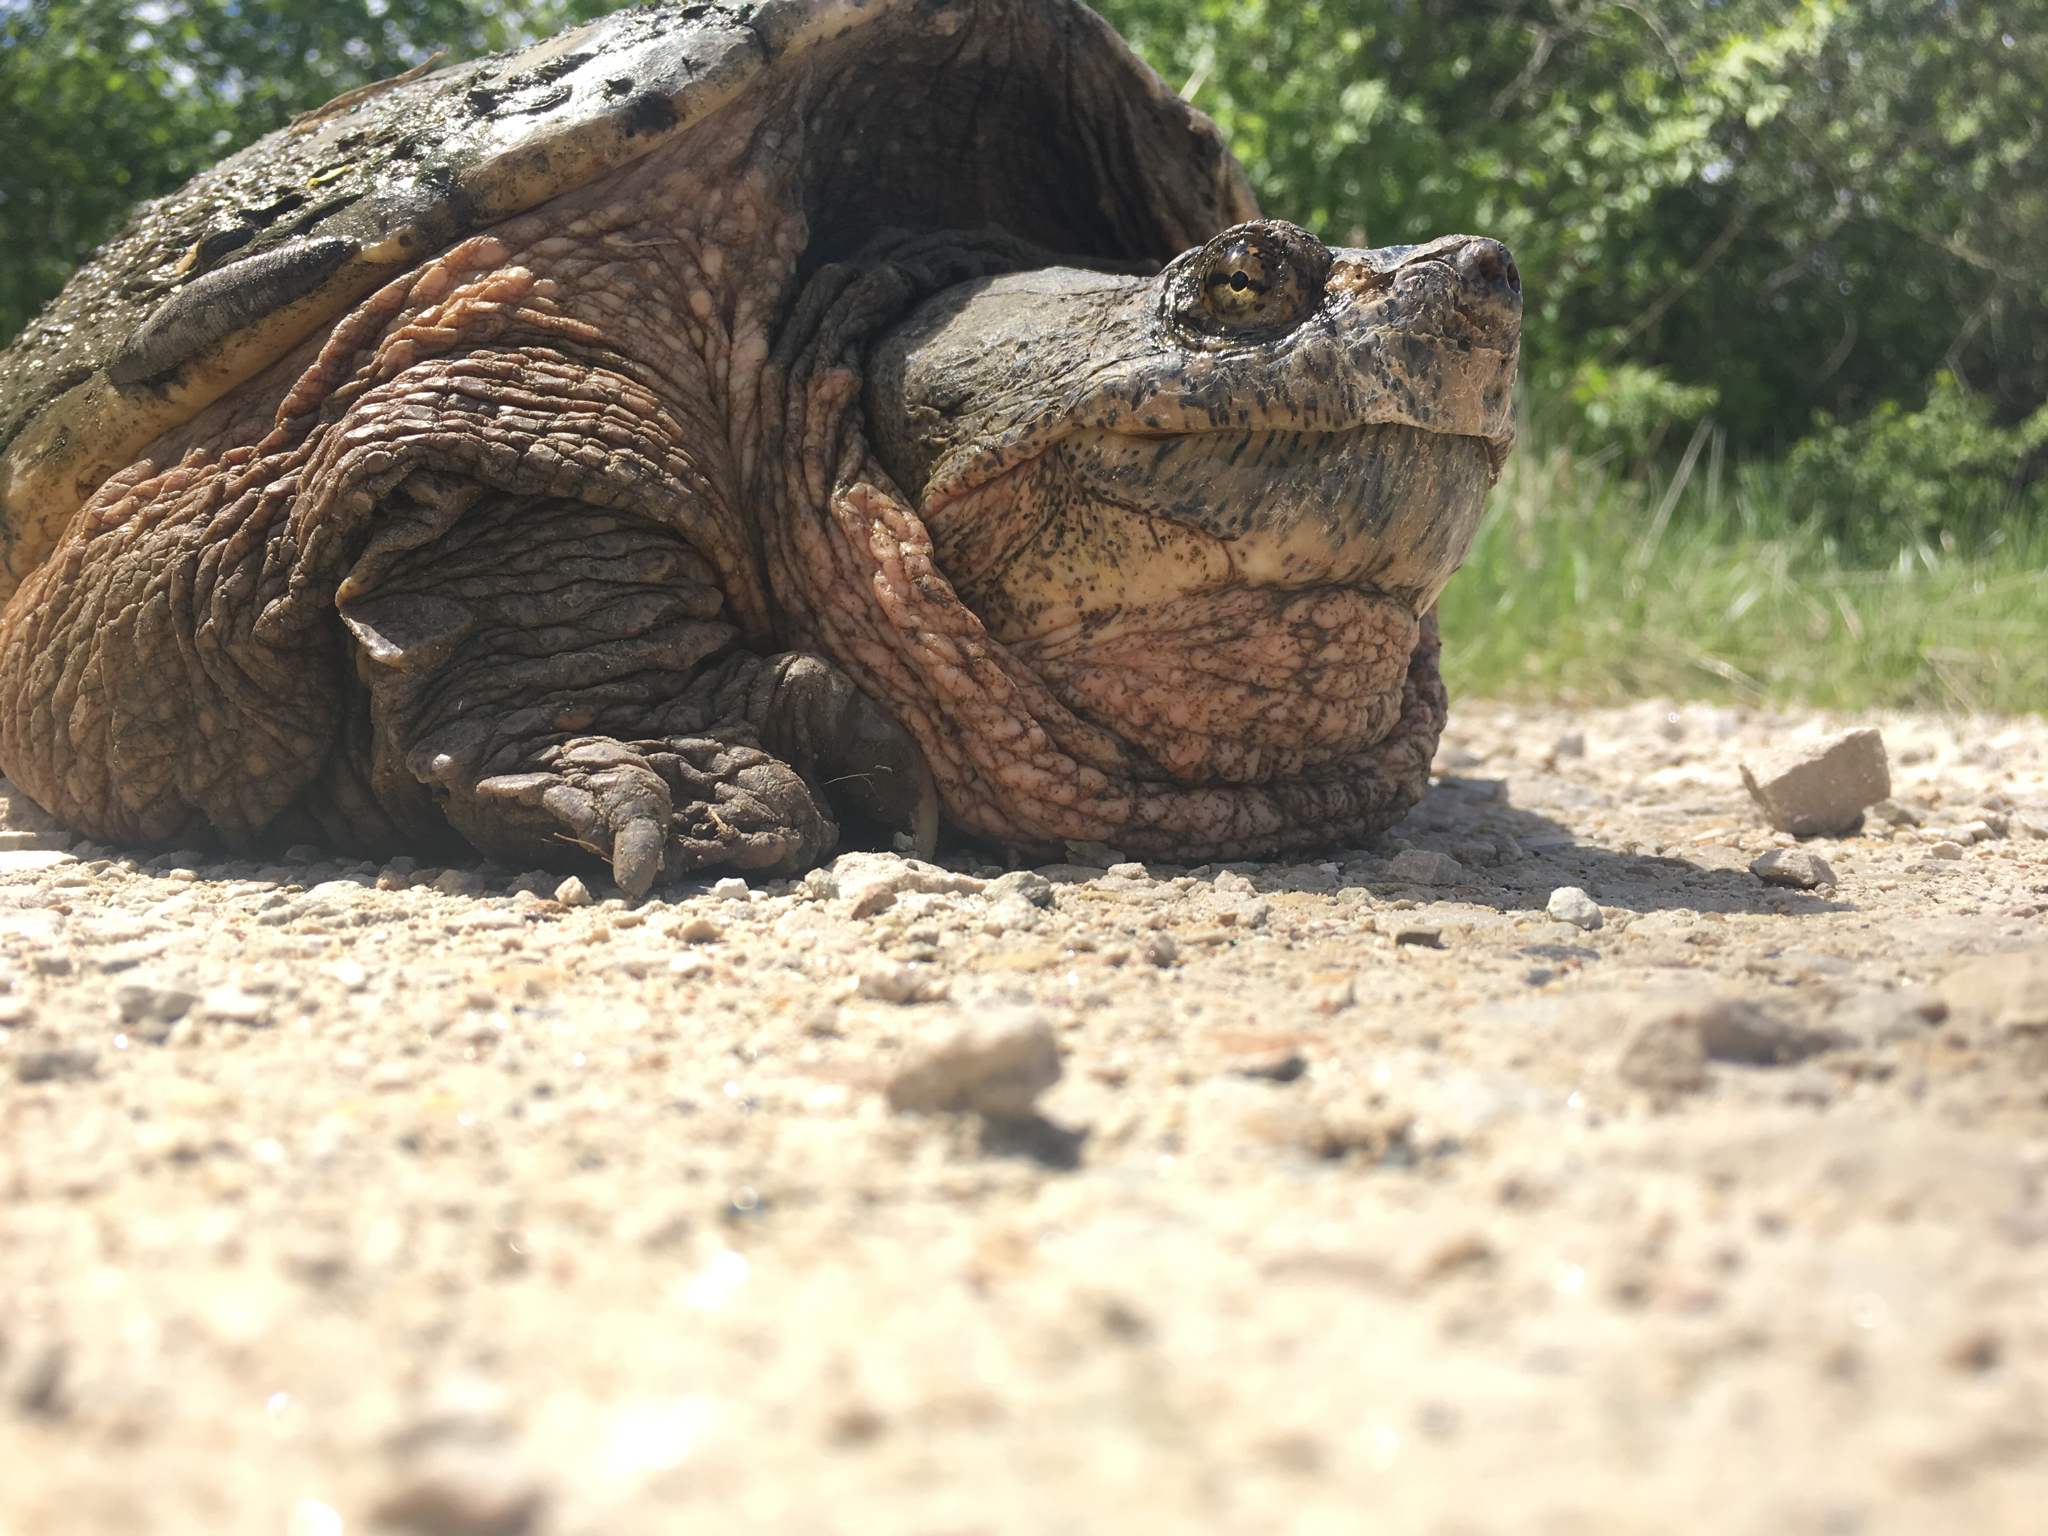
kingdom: Animalia
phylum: Chordata
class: Testudines
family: Chelydridae
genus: Chelydra
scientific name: Chelydra serpentina
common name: Common snapping turtle
